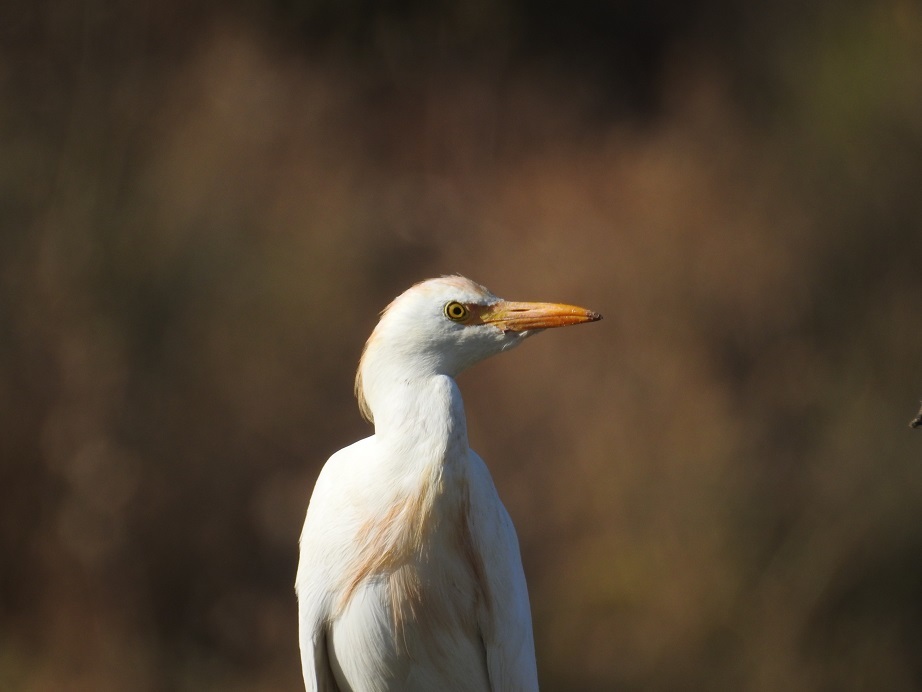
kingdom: Animalia
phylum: Chordata
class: Aves
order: Pelecaniformes
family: Ardeidae
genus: Bubulcus
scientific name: Bubulcus ibis
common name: Cattle egret
